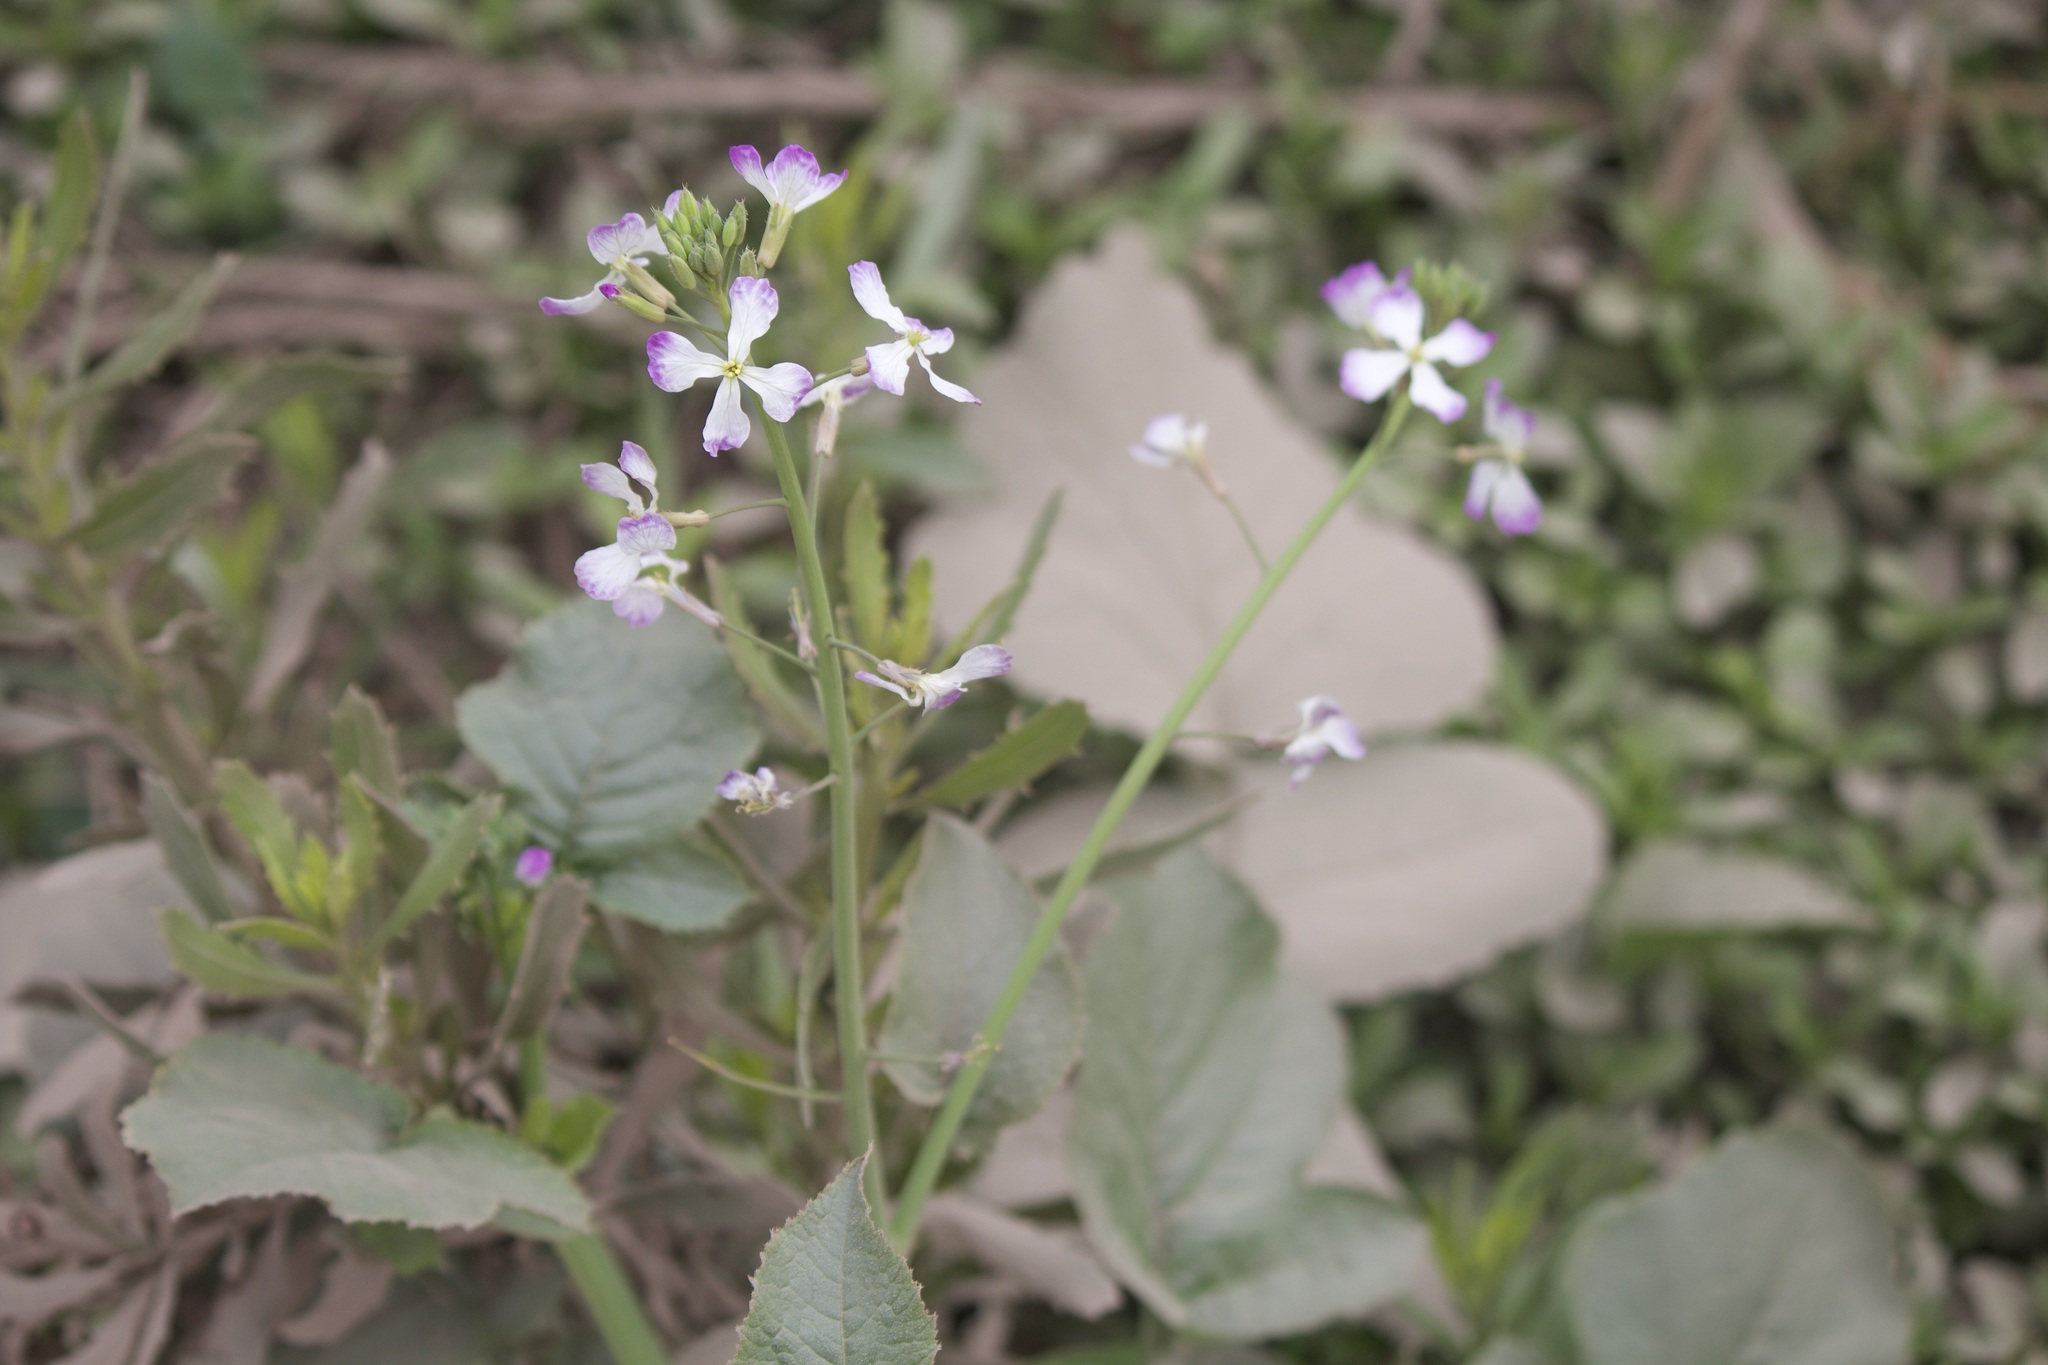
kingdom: Plantae
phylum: Tracheophyta
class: Magnoliopsida
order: Brassicales
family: Brassicaceae
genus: Raphanus
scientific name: Raphanus sativus
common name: Cultivated radish
